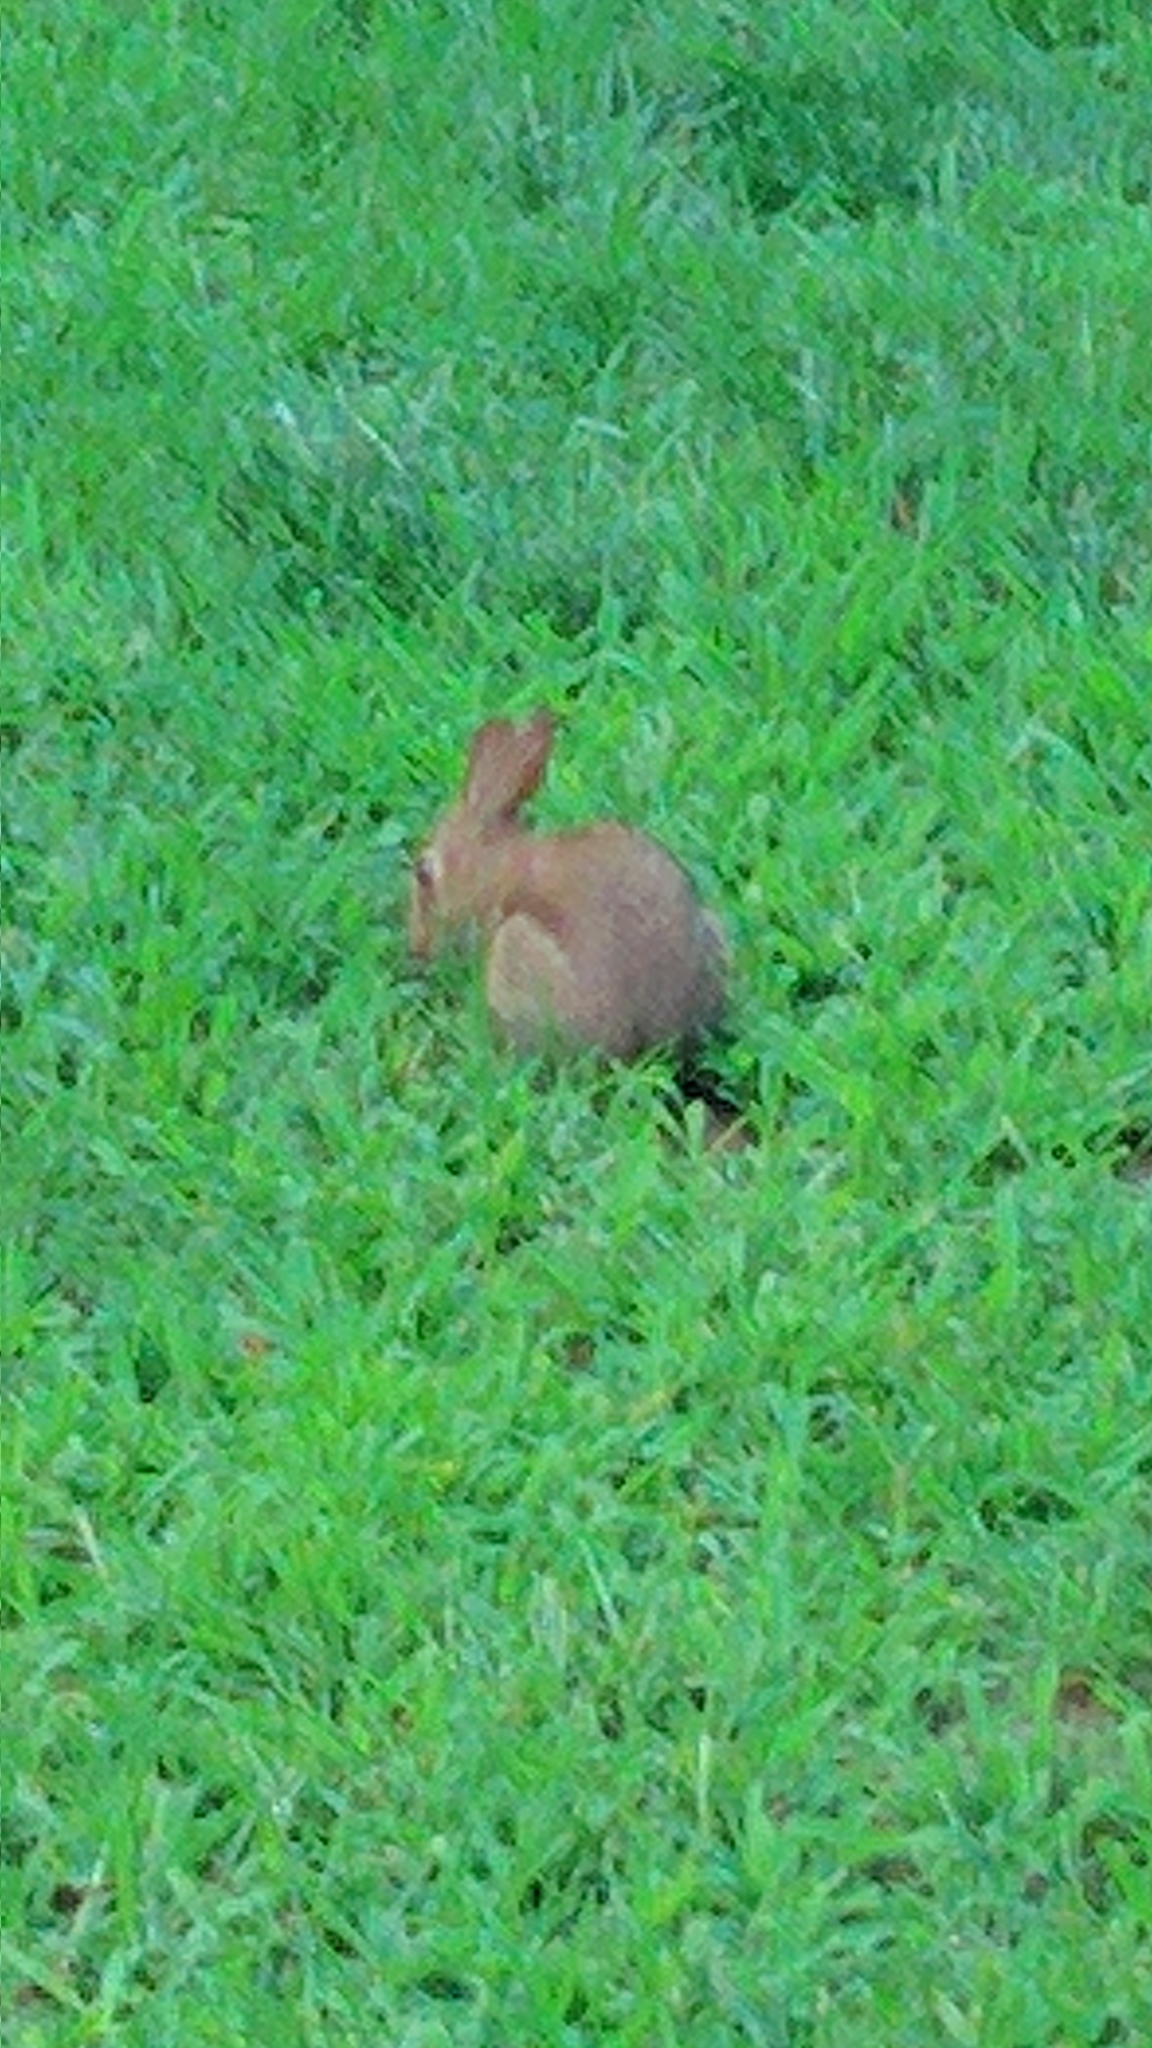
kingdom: Animalia
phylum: Chordata
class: Mammalia
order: Lagomorpha
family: Leporidae
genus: Sylvilagus
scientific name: Sylvilagus floridanus
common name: Eastern cottontail
